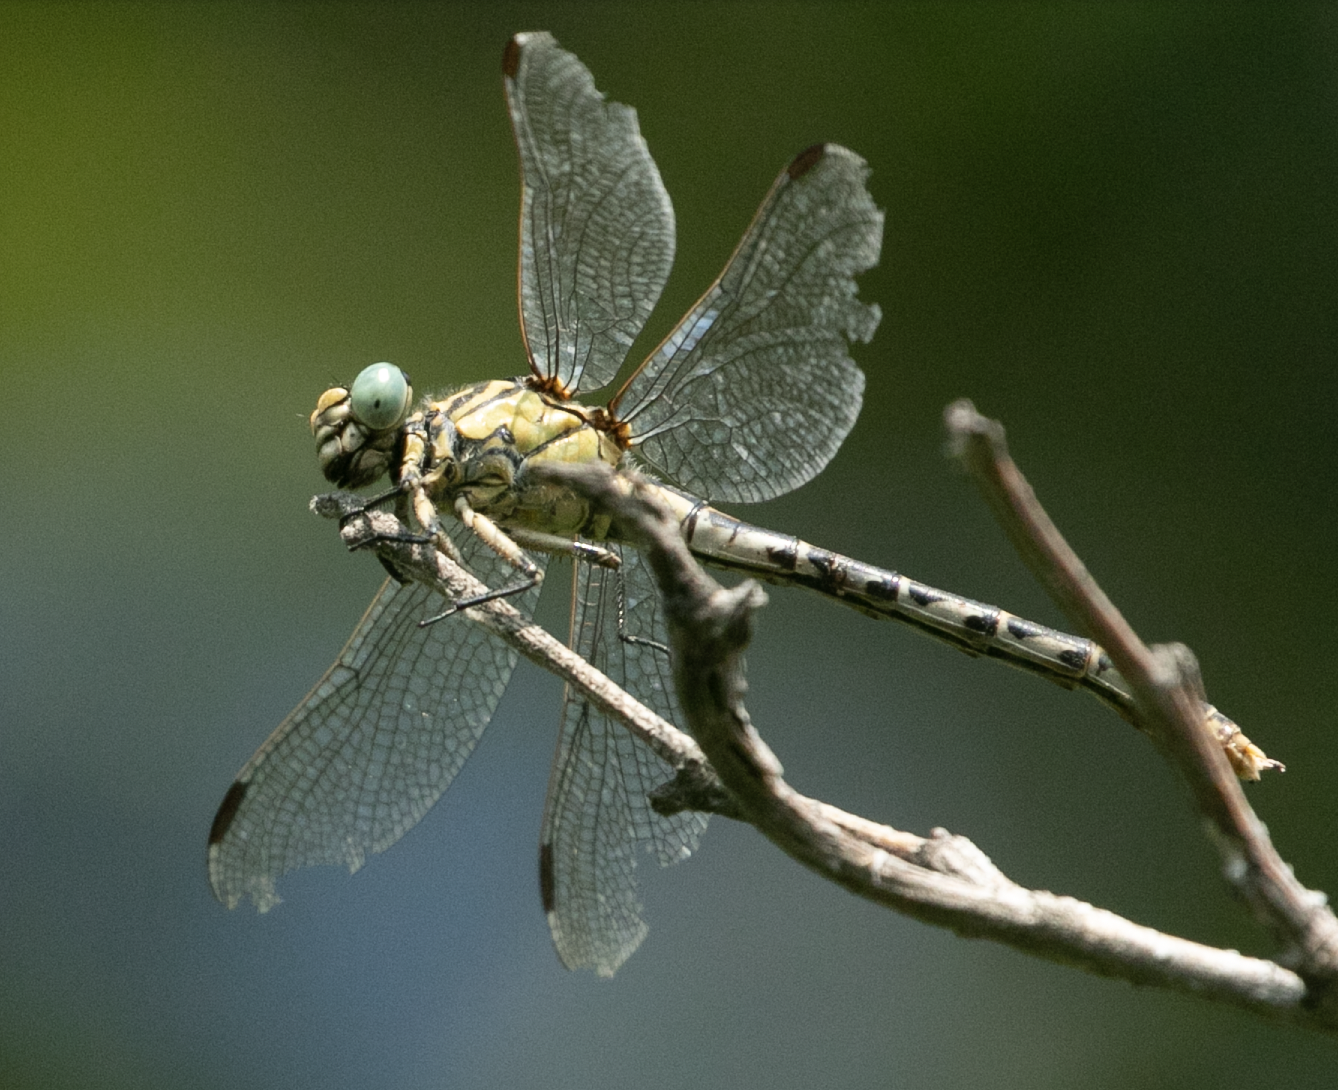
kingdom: Animalia
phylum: Arthropoda
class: Insecta
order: Odonata
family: Gomphidae
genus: Onychogomphus
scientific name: Onychogomphus forcipatus
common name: Small pincertail
